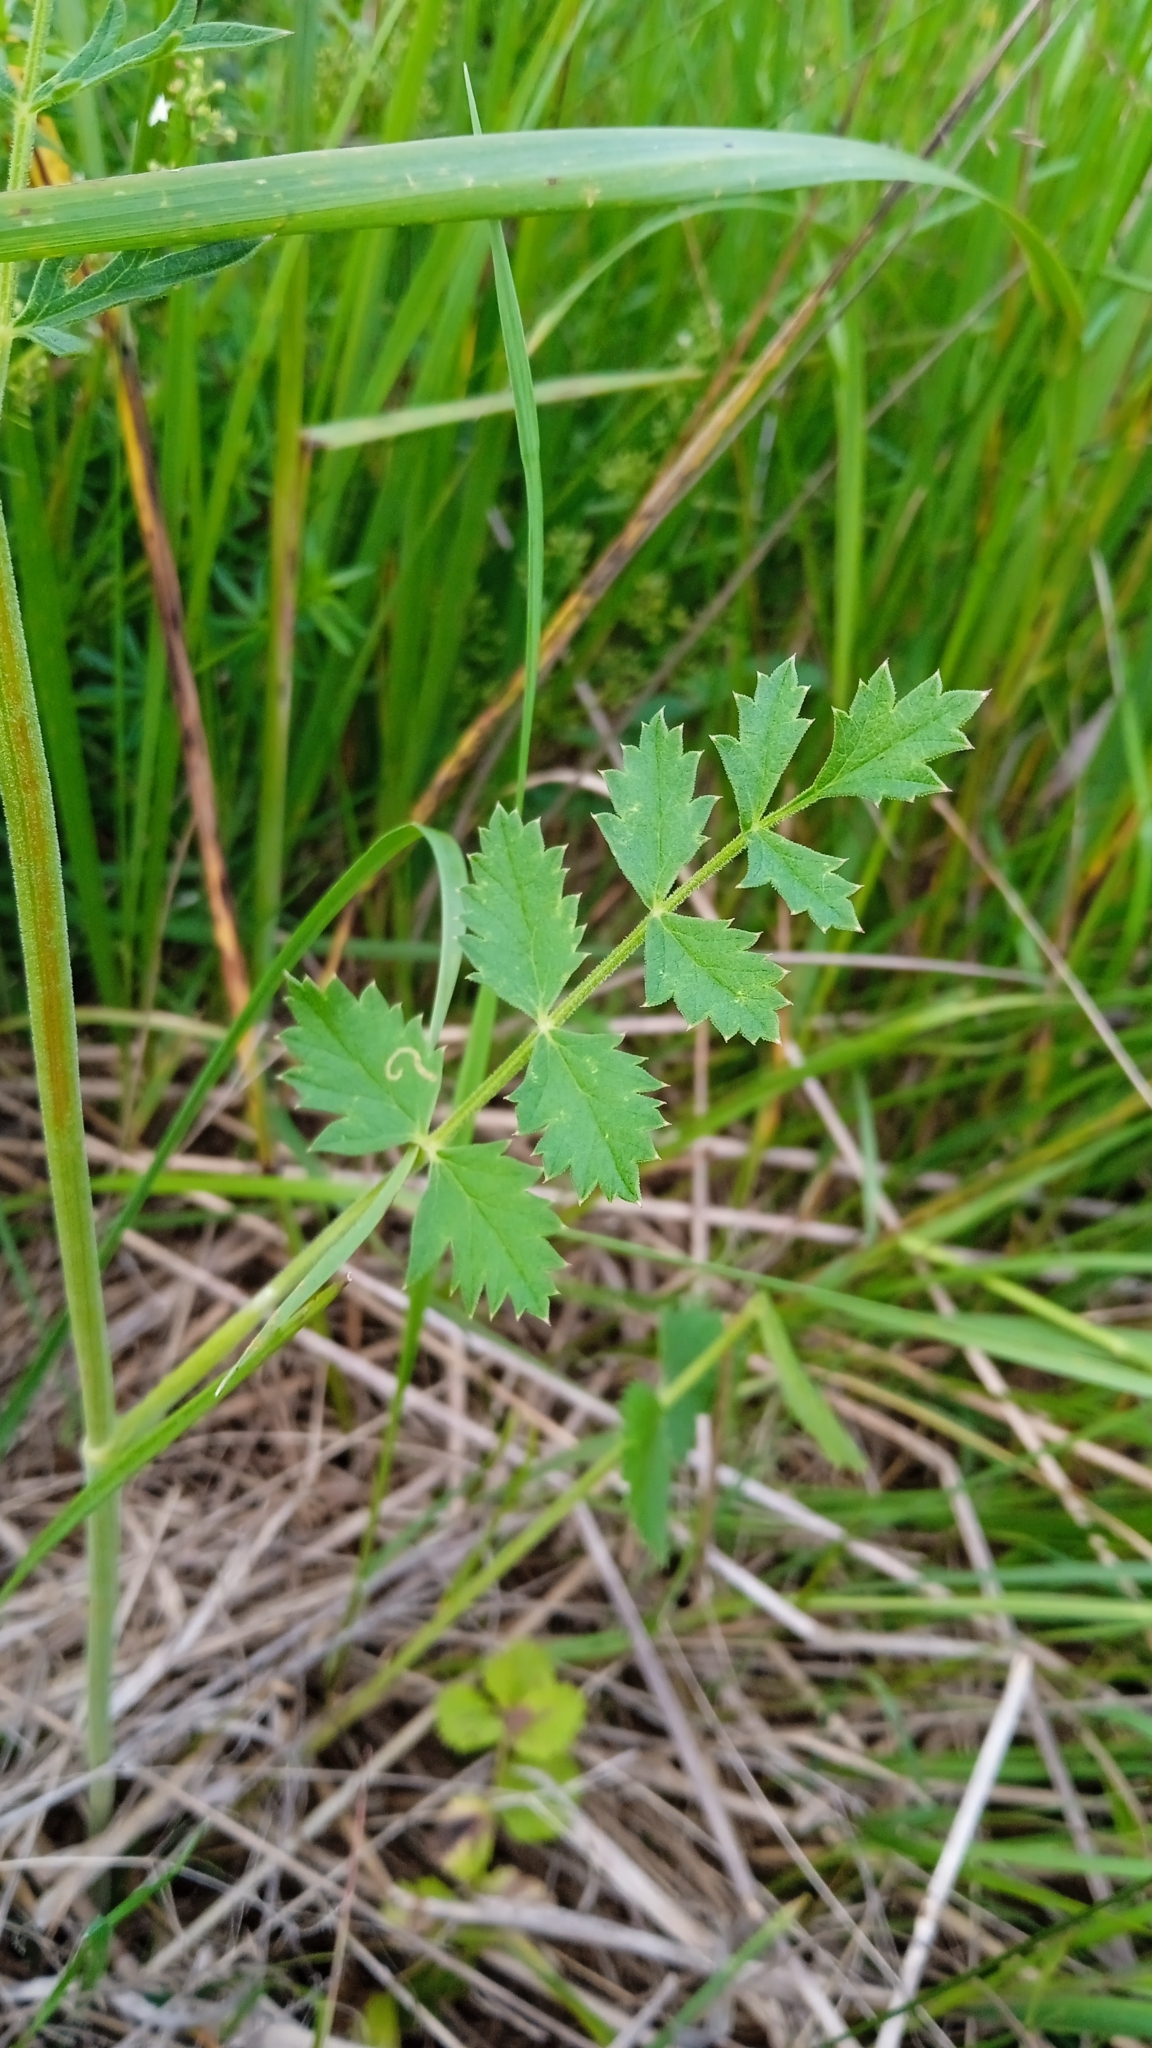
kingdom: Plantae
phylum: Tracheophyta
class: Magnoliopsida
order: Apiales
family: Apiaceae
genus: Pimpinella
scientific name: Pimpinella saxifraga
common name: Burnet-saxifrage
